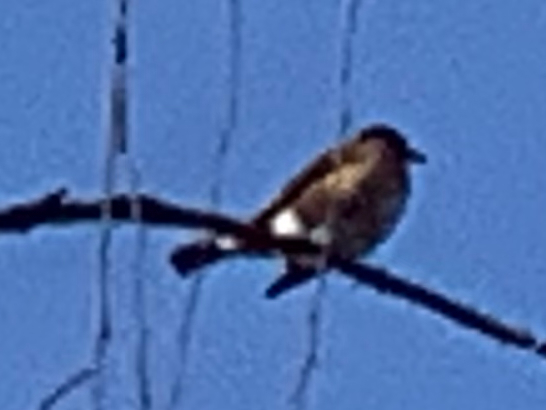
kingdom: Animalia
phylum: Chordata
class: Aves
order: Passeriformes
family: Turdidae
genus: Turdus
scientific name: Turdus migratorius
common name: American robin
